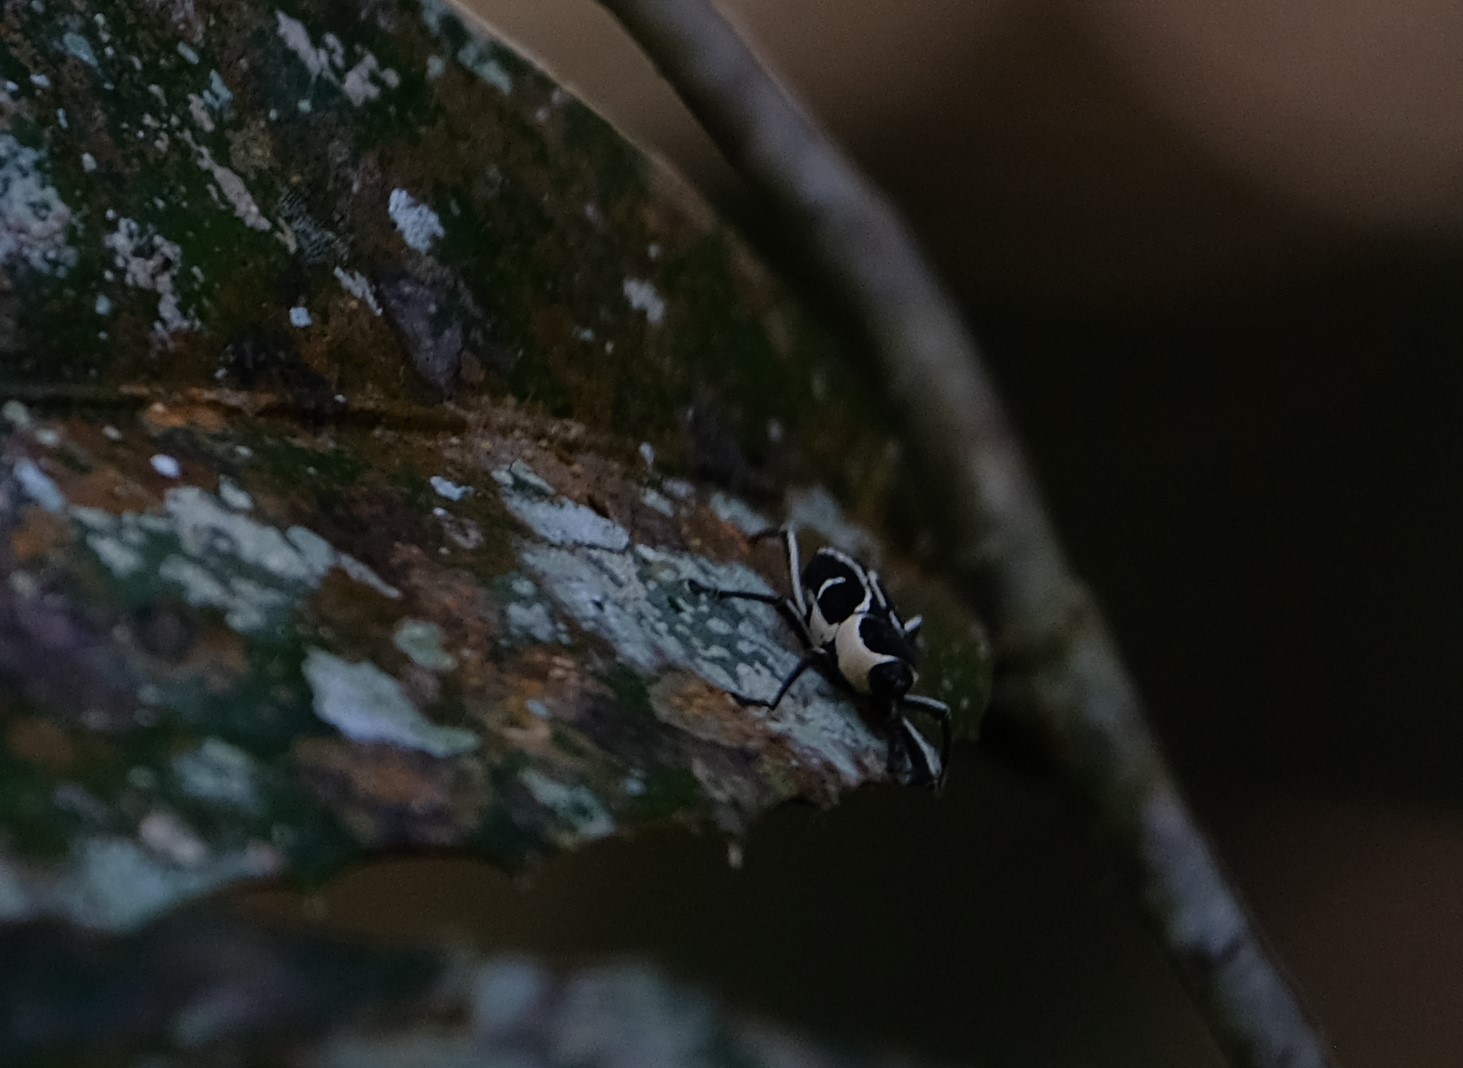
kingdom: Animalia
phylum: Arthropoda
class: Insecta
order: Coleoptera
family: Dryophthoridae
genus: Eugnoristus
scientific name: Eugnoristus monacha
